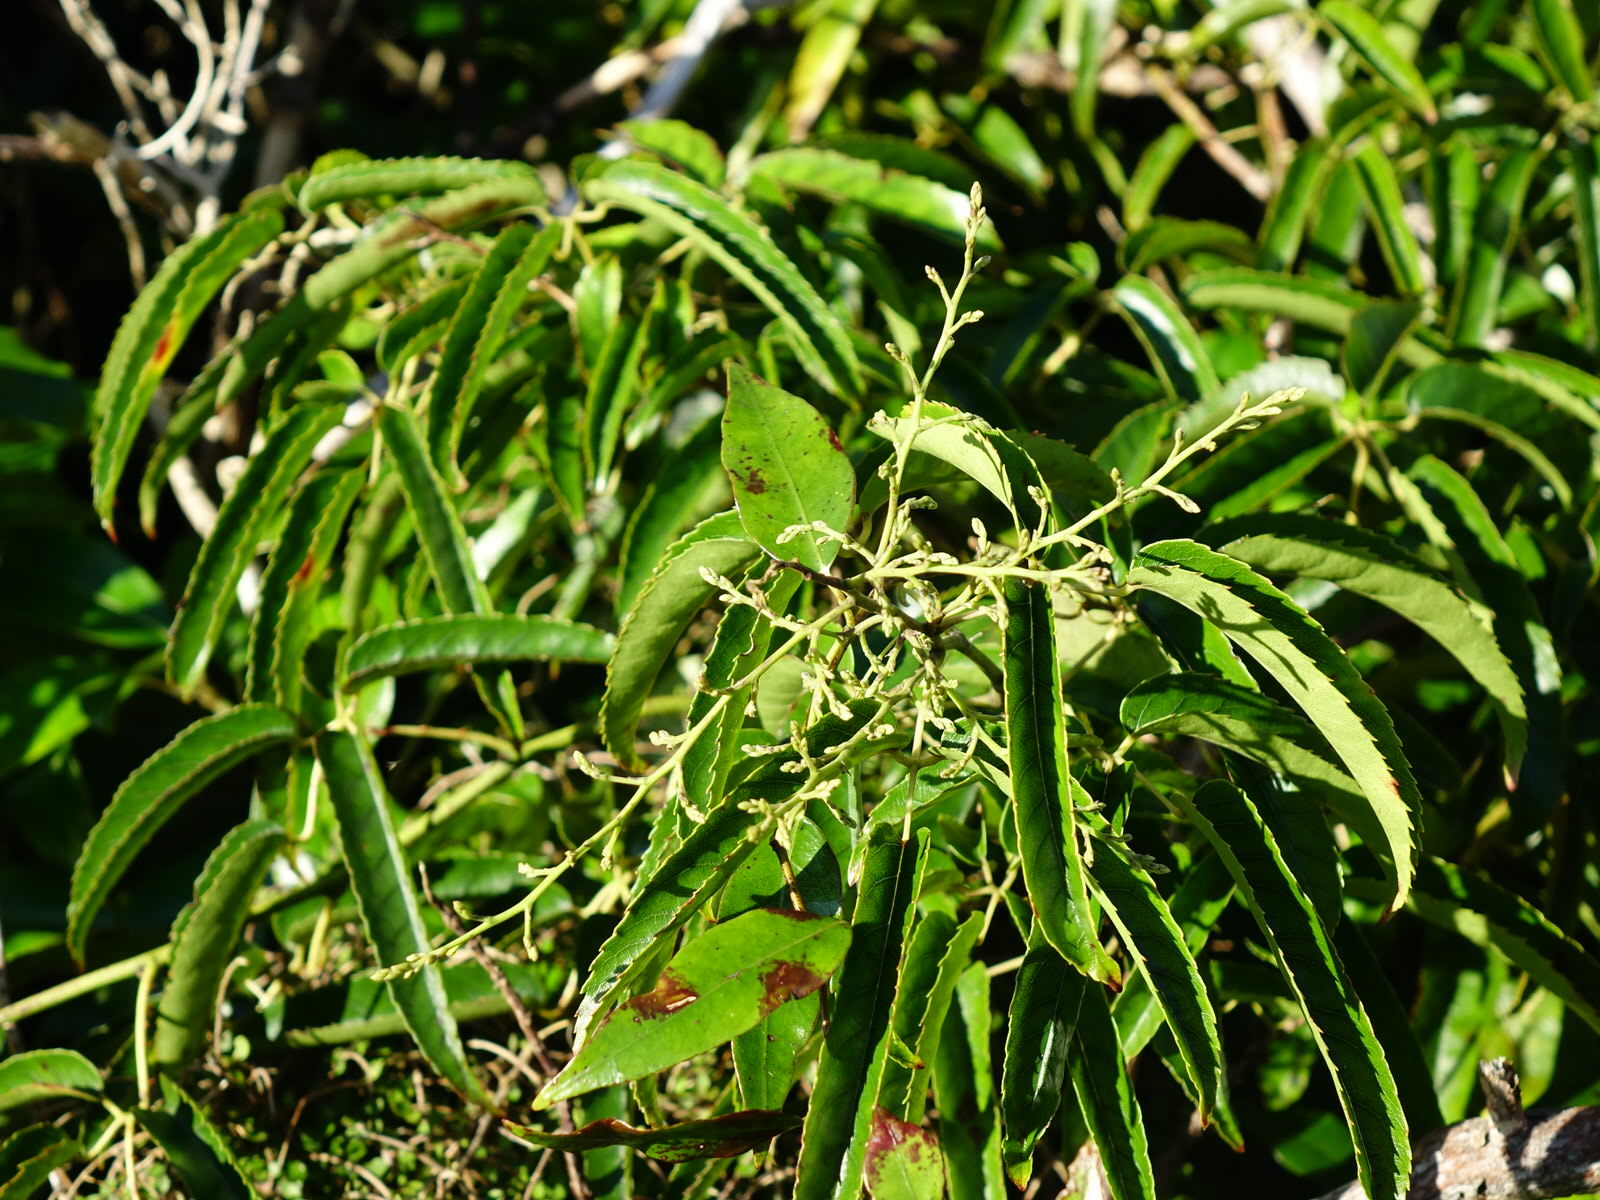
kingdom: Plantae
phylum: Tracheophyta
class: Magnoliopsida
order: Rosales
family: Rosaceae
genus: Rubus
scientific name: Rubus cissoides
